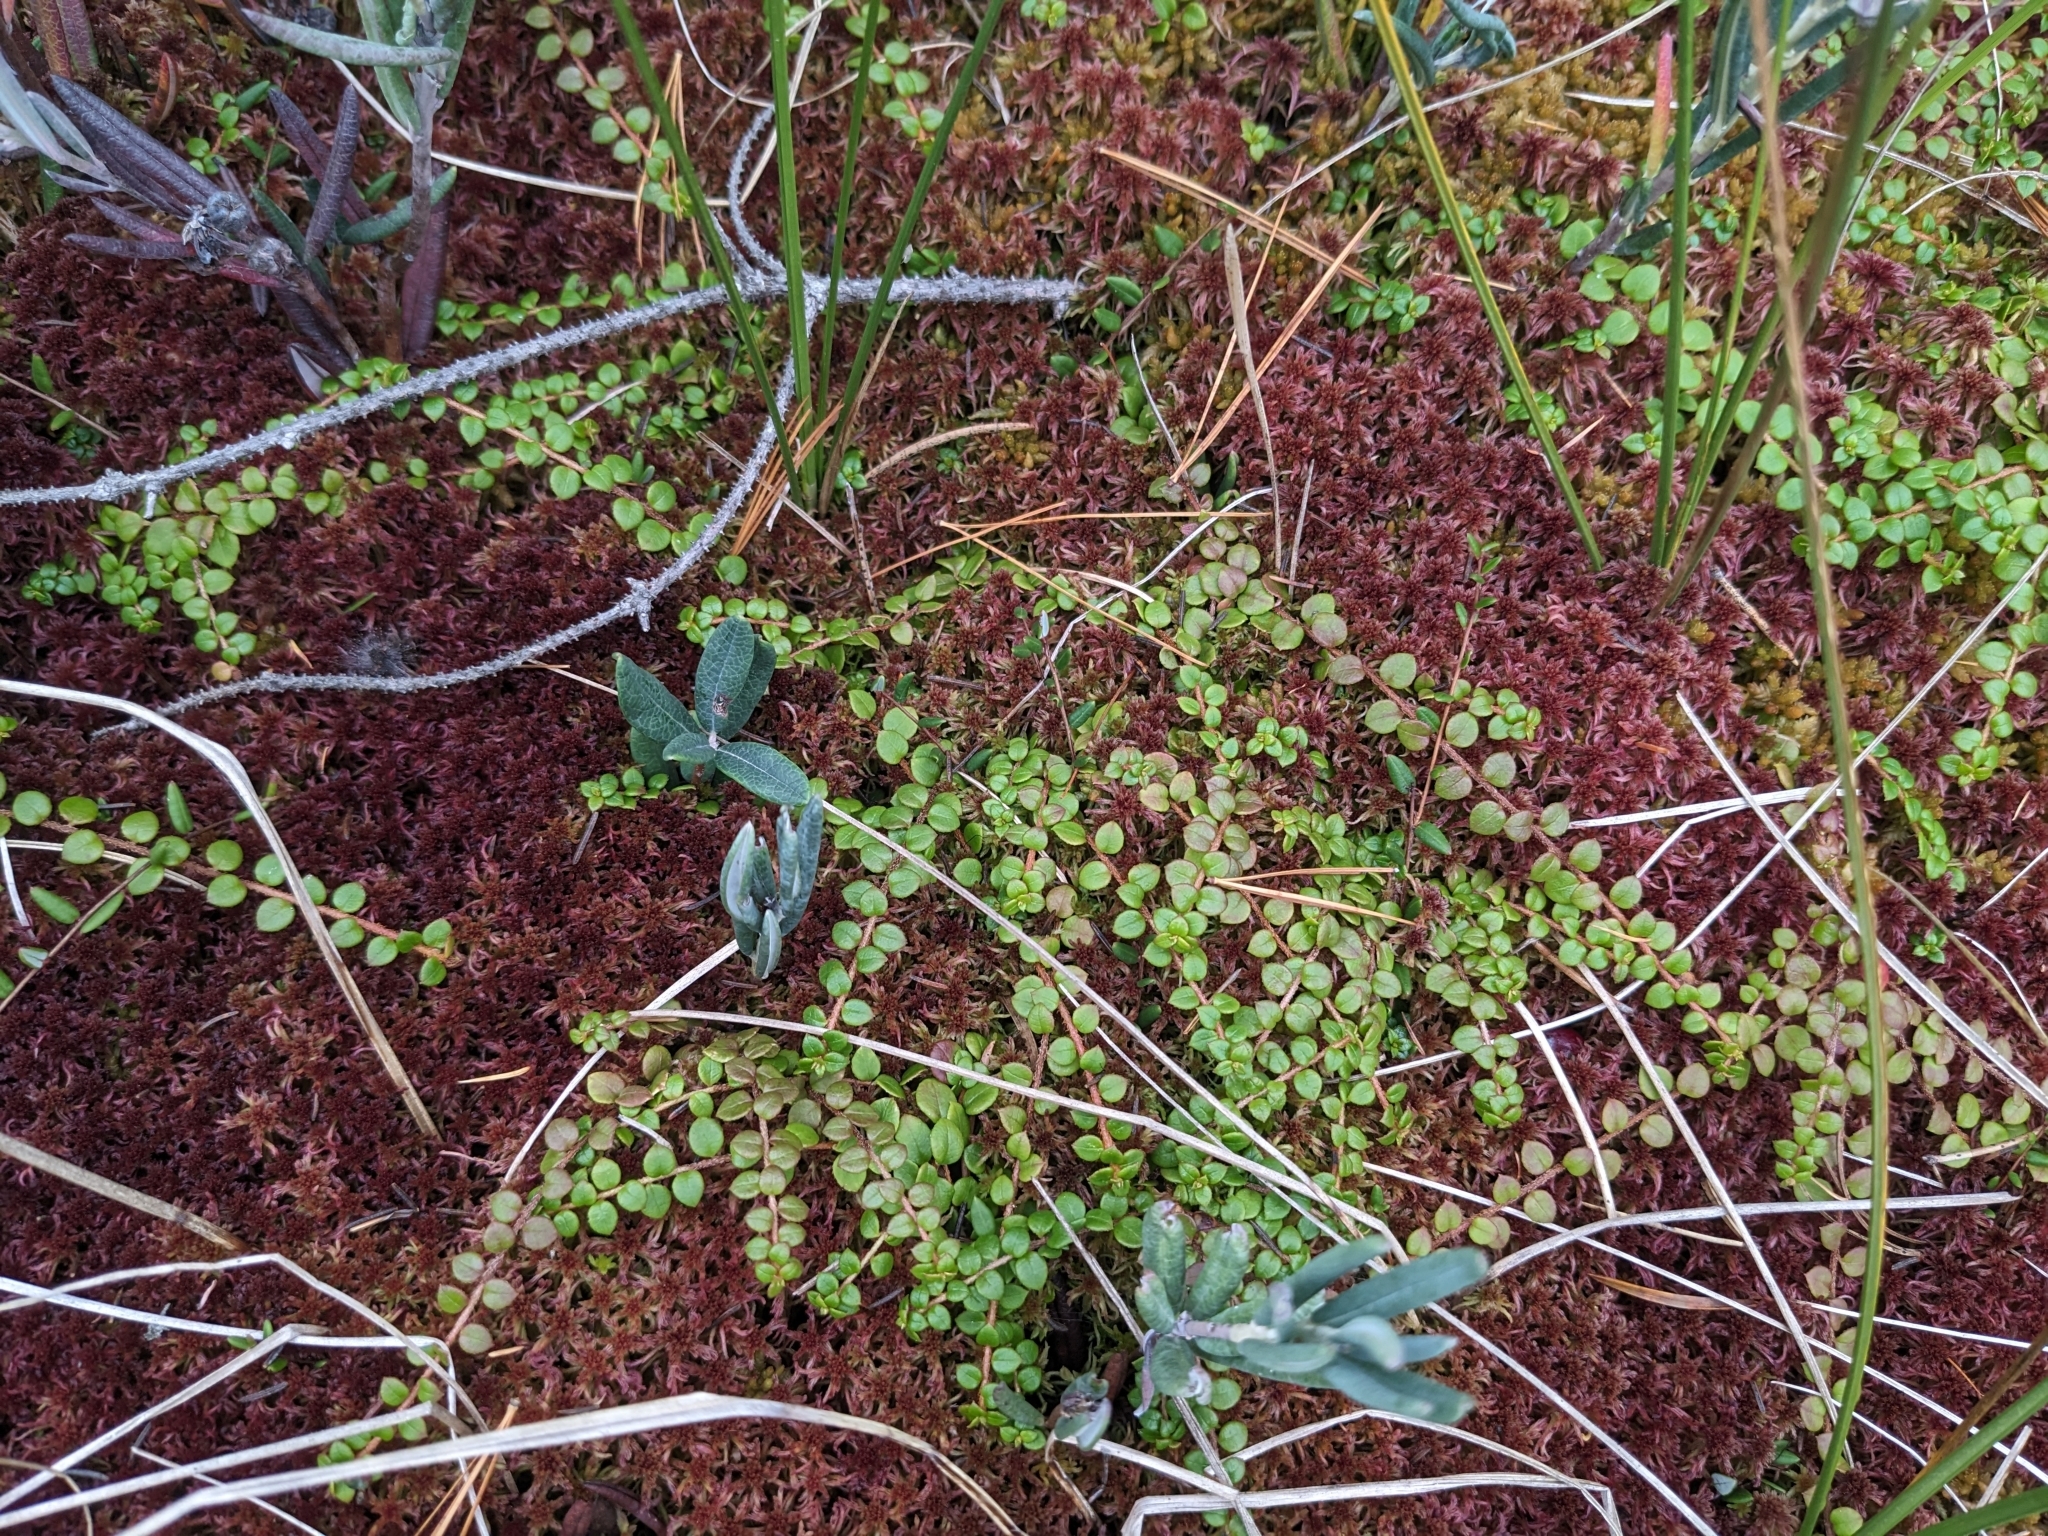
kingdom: Plantae
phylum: Tracheophyta
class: Magnoliopsida
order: Ericales
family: Ericaceae
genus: Gaultheria
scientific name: Gaultheria hispidula
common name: Cancer wintergreen
